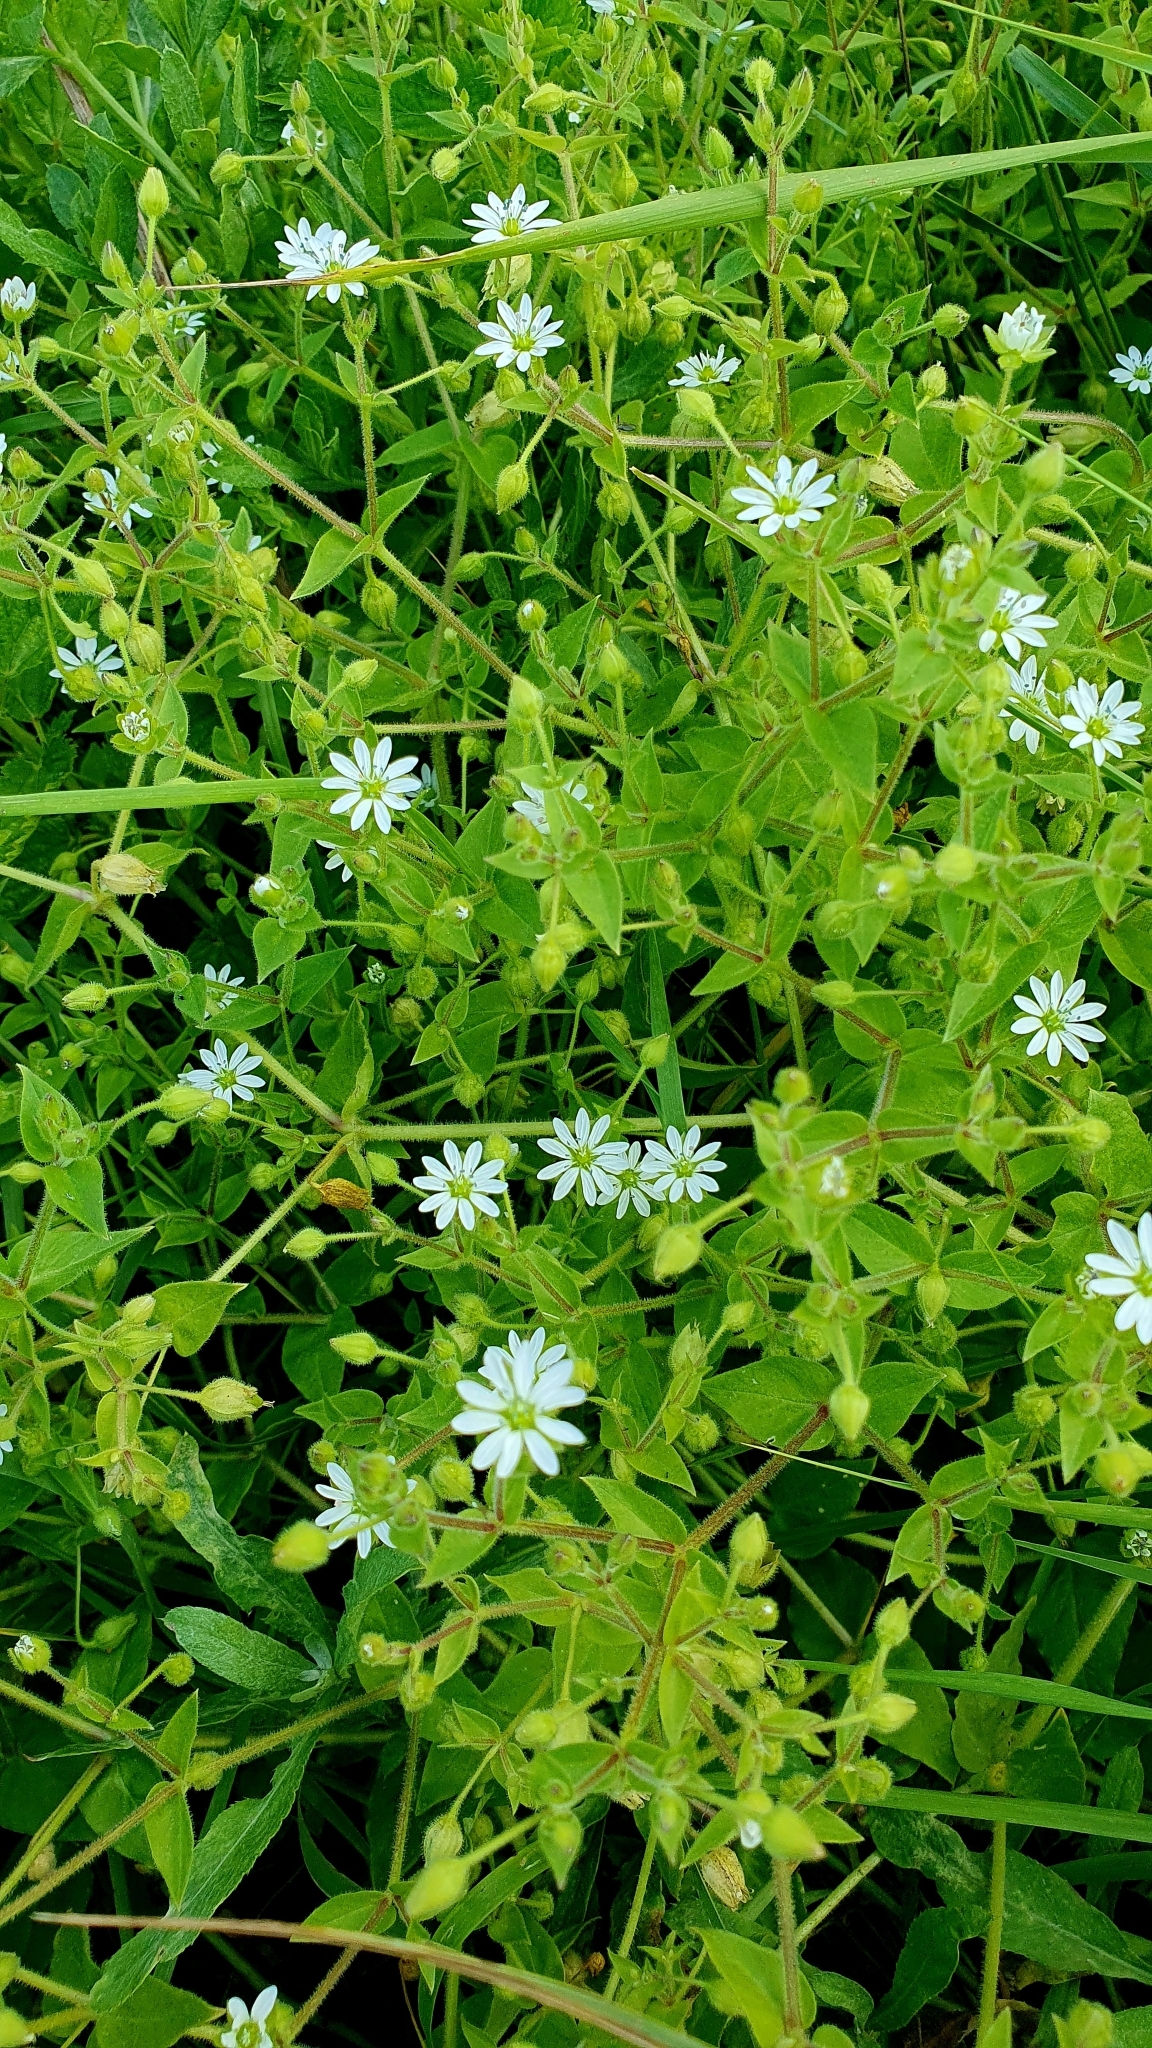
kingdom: Plantae
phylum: Tracheophyta
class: Magnoliopsida
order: Caryophyllales
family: Caryophyllaceae
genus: Stellaria
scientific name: Stellaria aquatica
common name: Water chickweed
